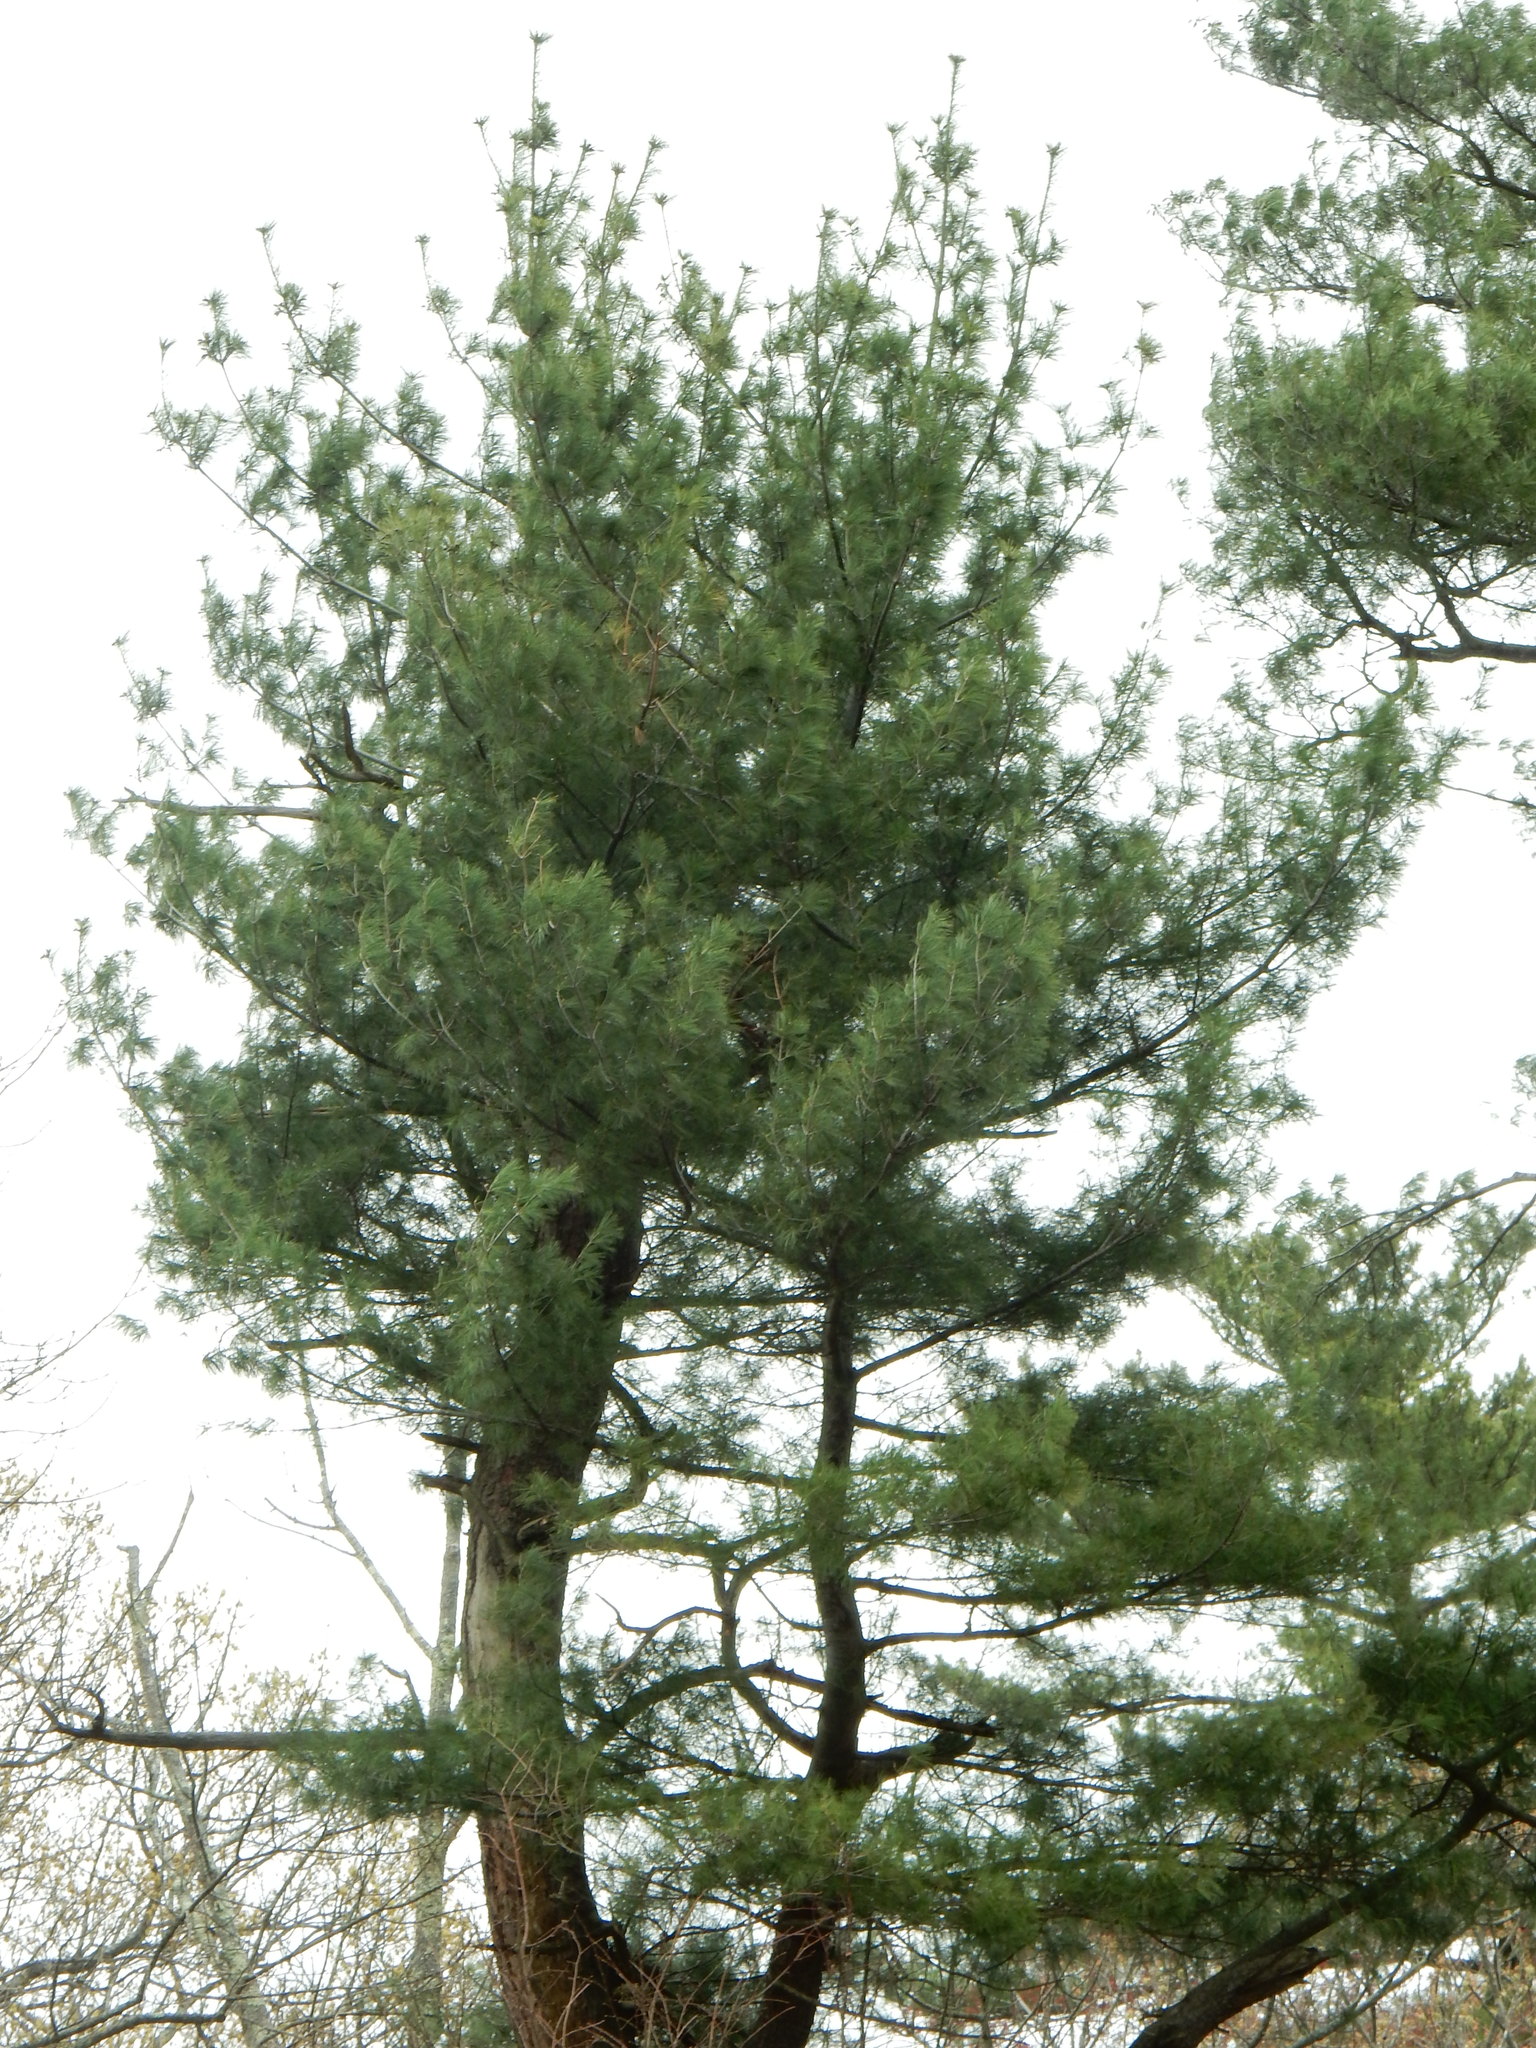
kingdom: Plantae
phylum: Tracheophyta
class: Pinopsida
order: Pinales
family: Pinaceae
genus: Pinus
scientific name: Pinus strobus
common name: Weymouth pine
